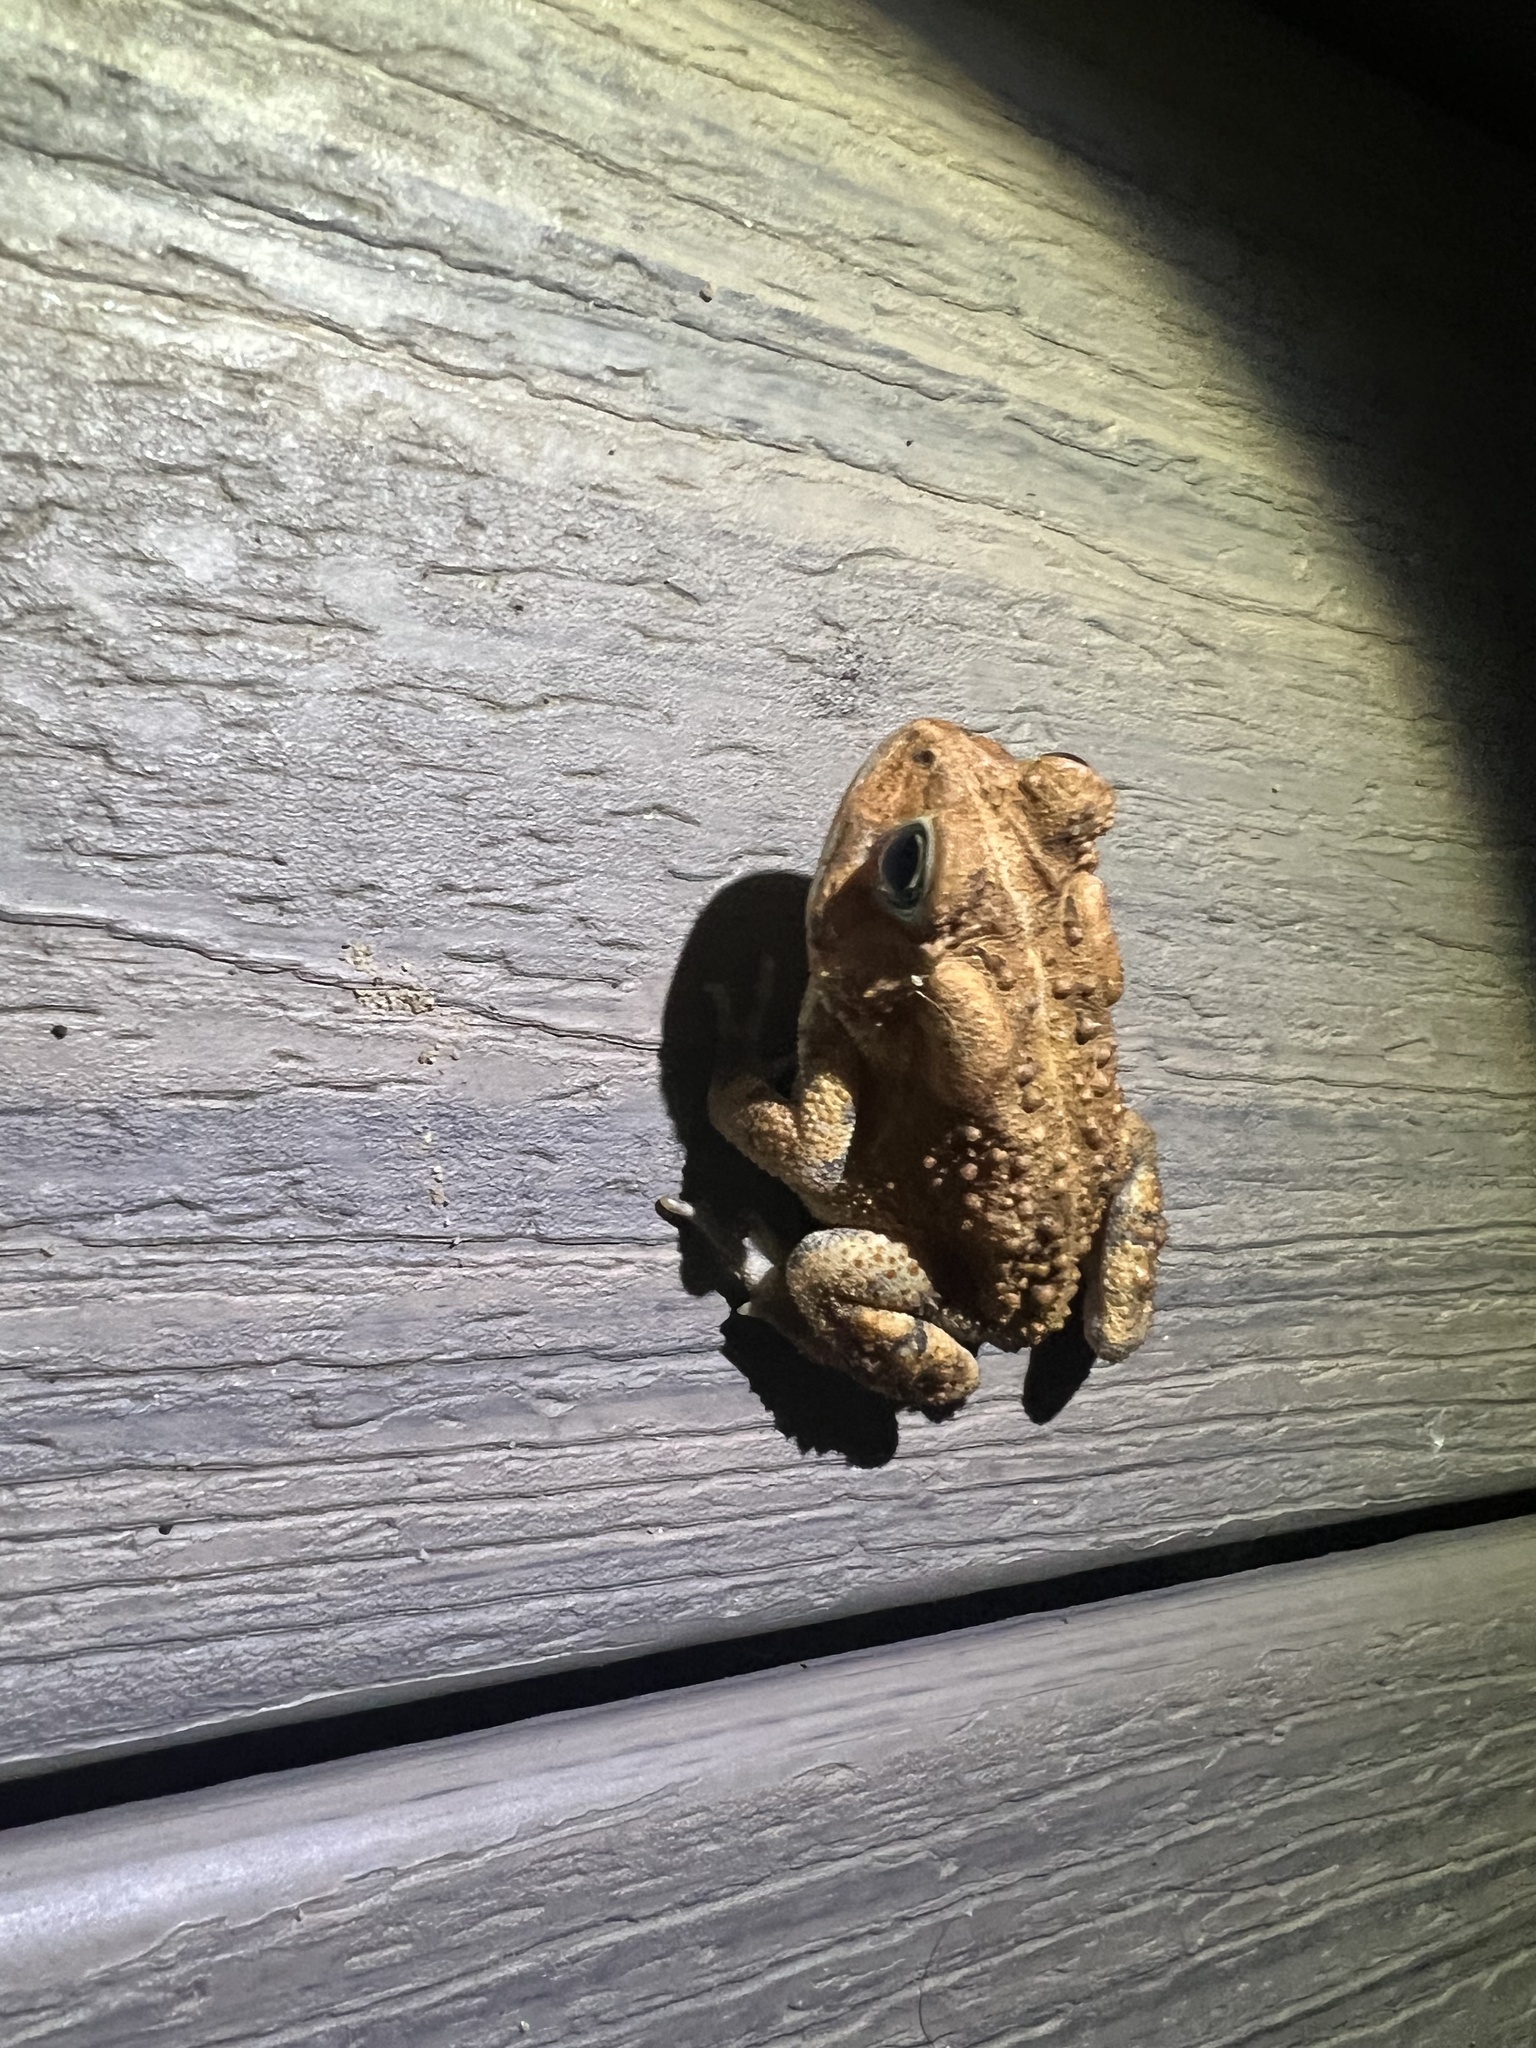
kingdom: Animalia
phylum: Chordata
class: Amphibia
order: Anura
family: Bufonidae
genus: Anaxyrus
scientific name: Anaxyrus americanus
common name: American toad
